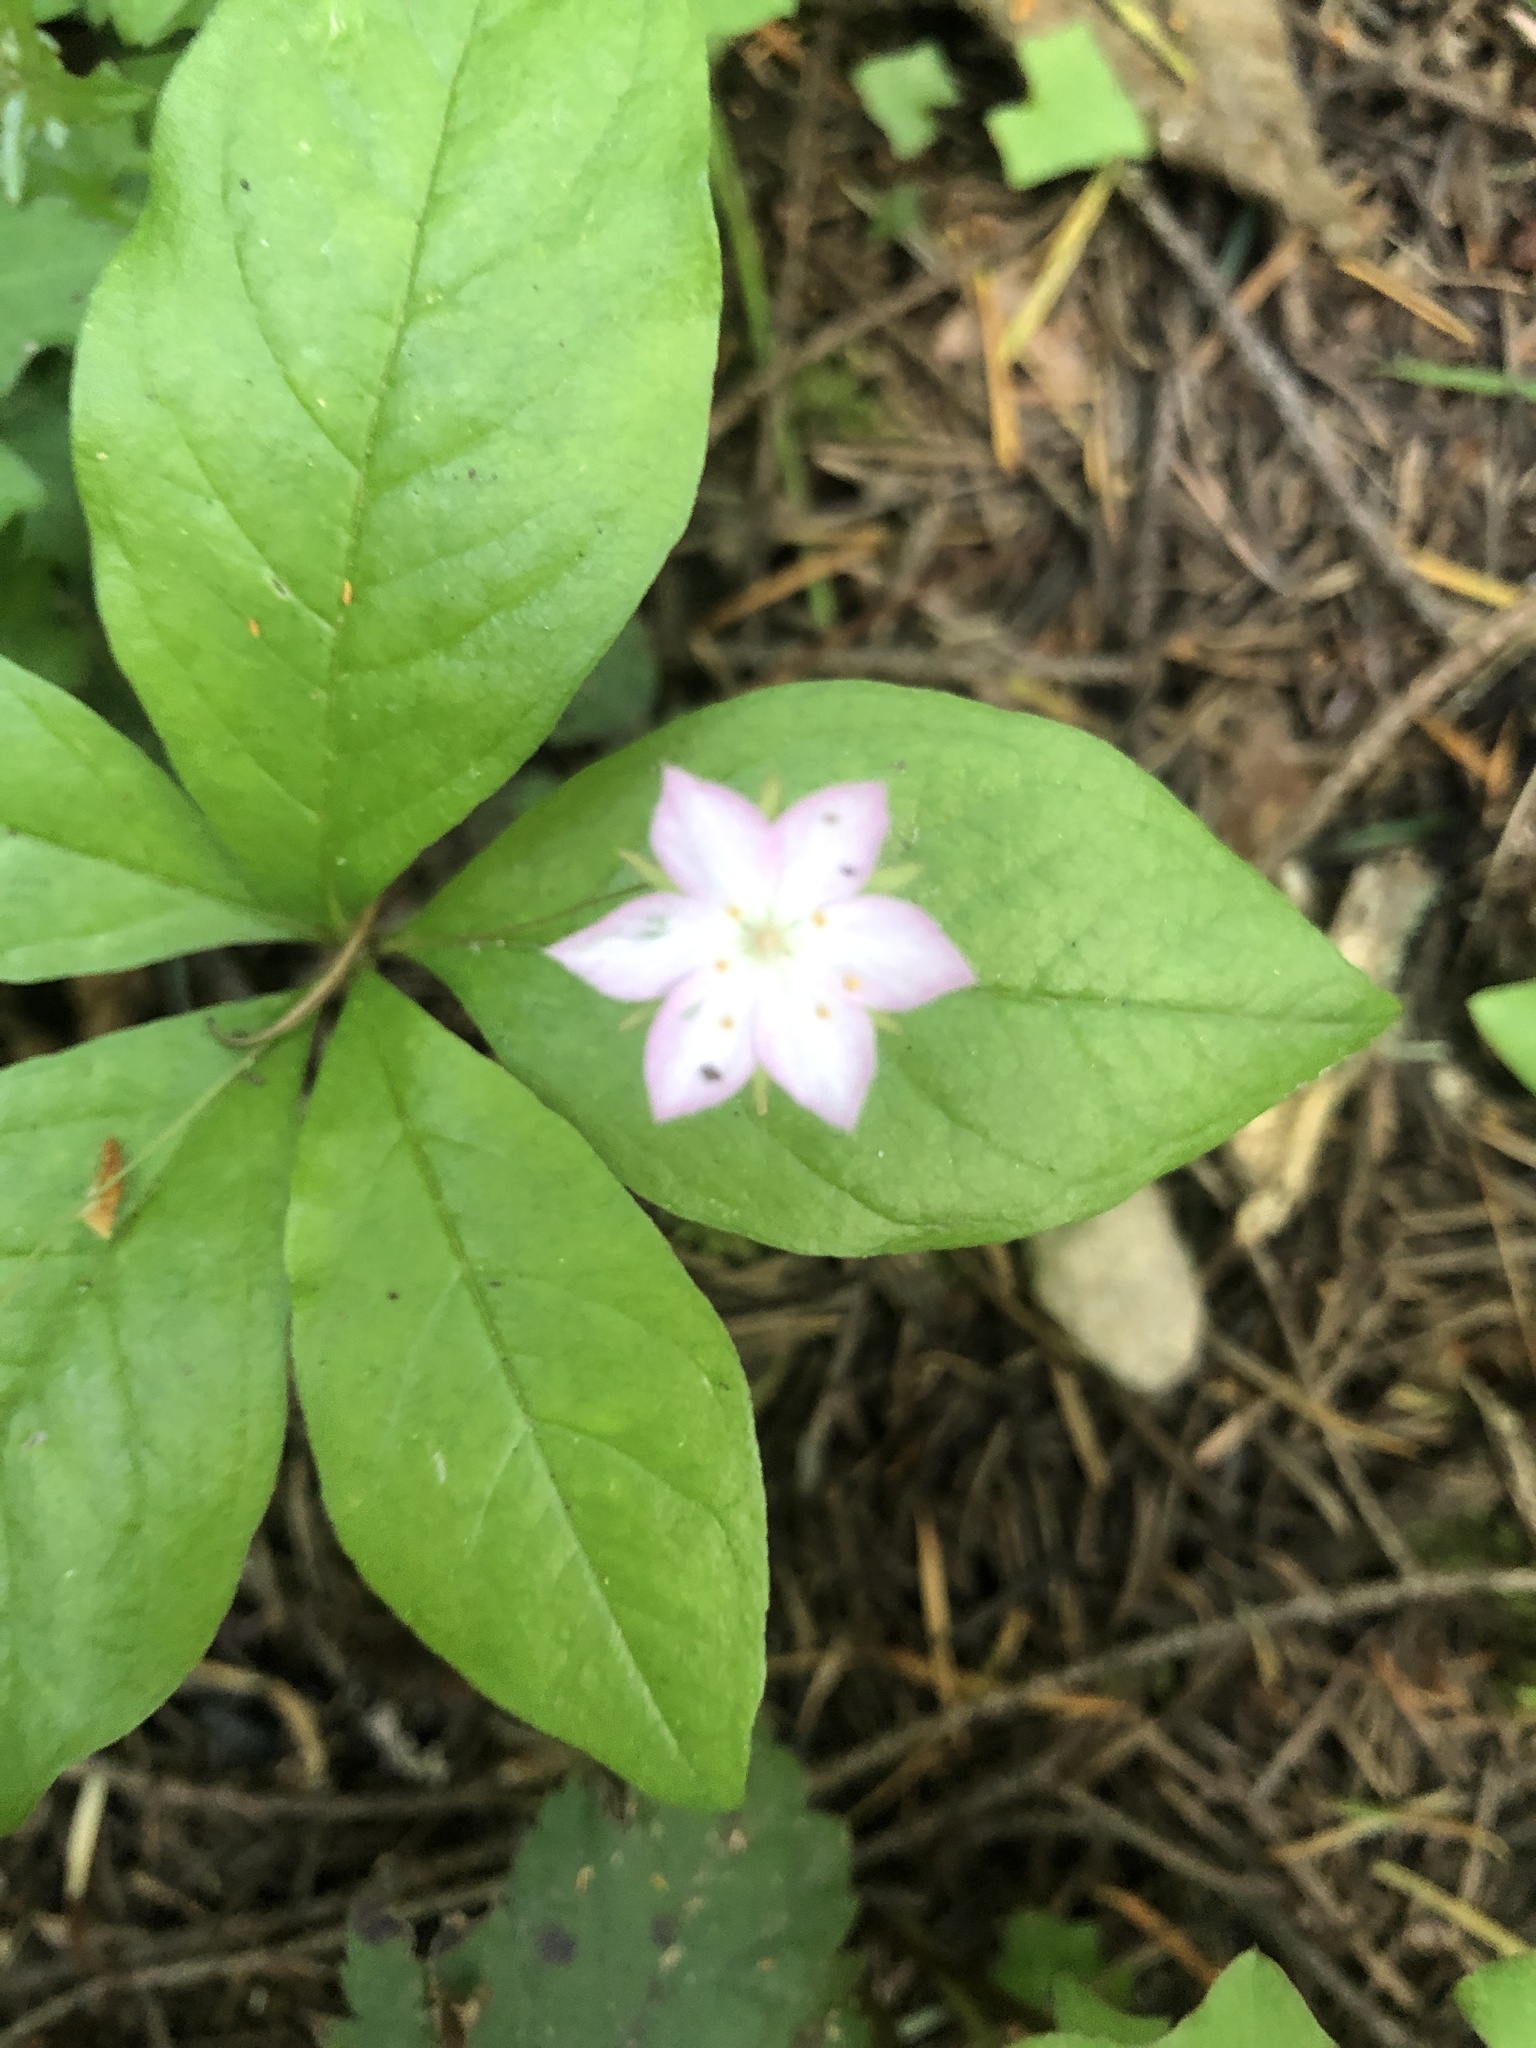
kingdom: Plantae
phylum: Tracheophyta
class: Magnoliopsida
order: Ericales
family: Primulaceae
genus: Lysimachia
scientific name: Lysimachia latifolia
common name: Pacific starflower
